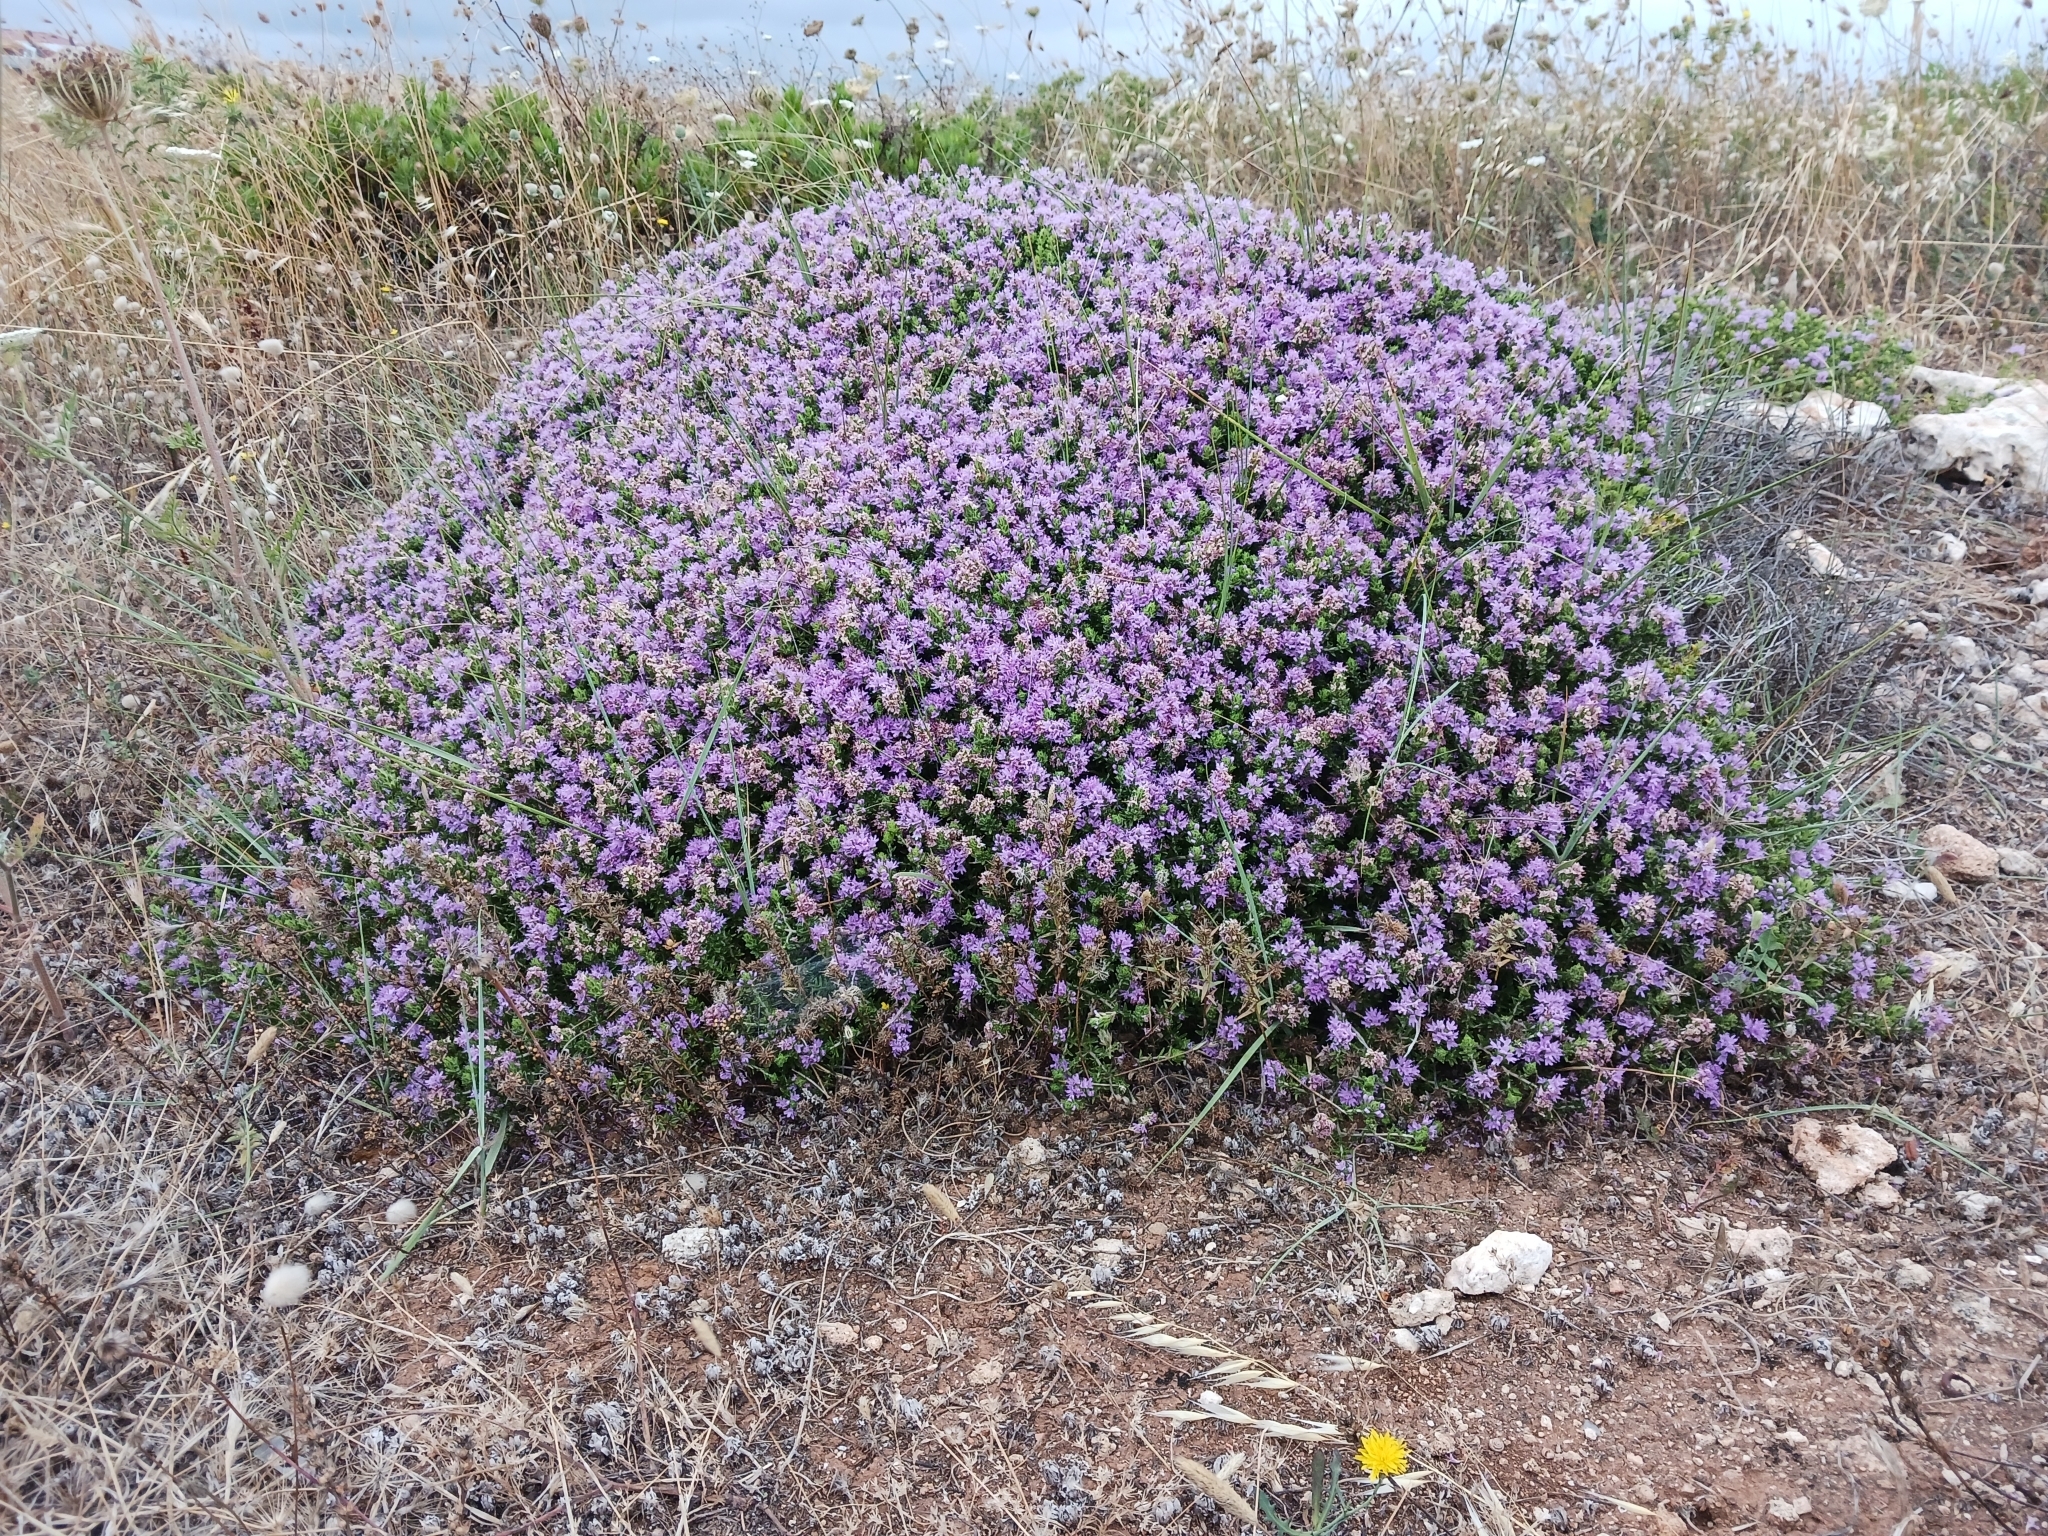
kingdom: Plantae
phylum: Tracheophyta
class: Magnoliopsida
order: Lamiales
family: Lamiaceae
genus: Thymbra
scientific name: Thymbra capitata
